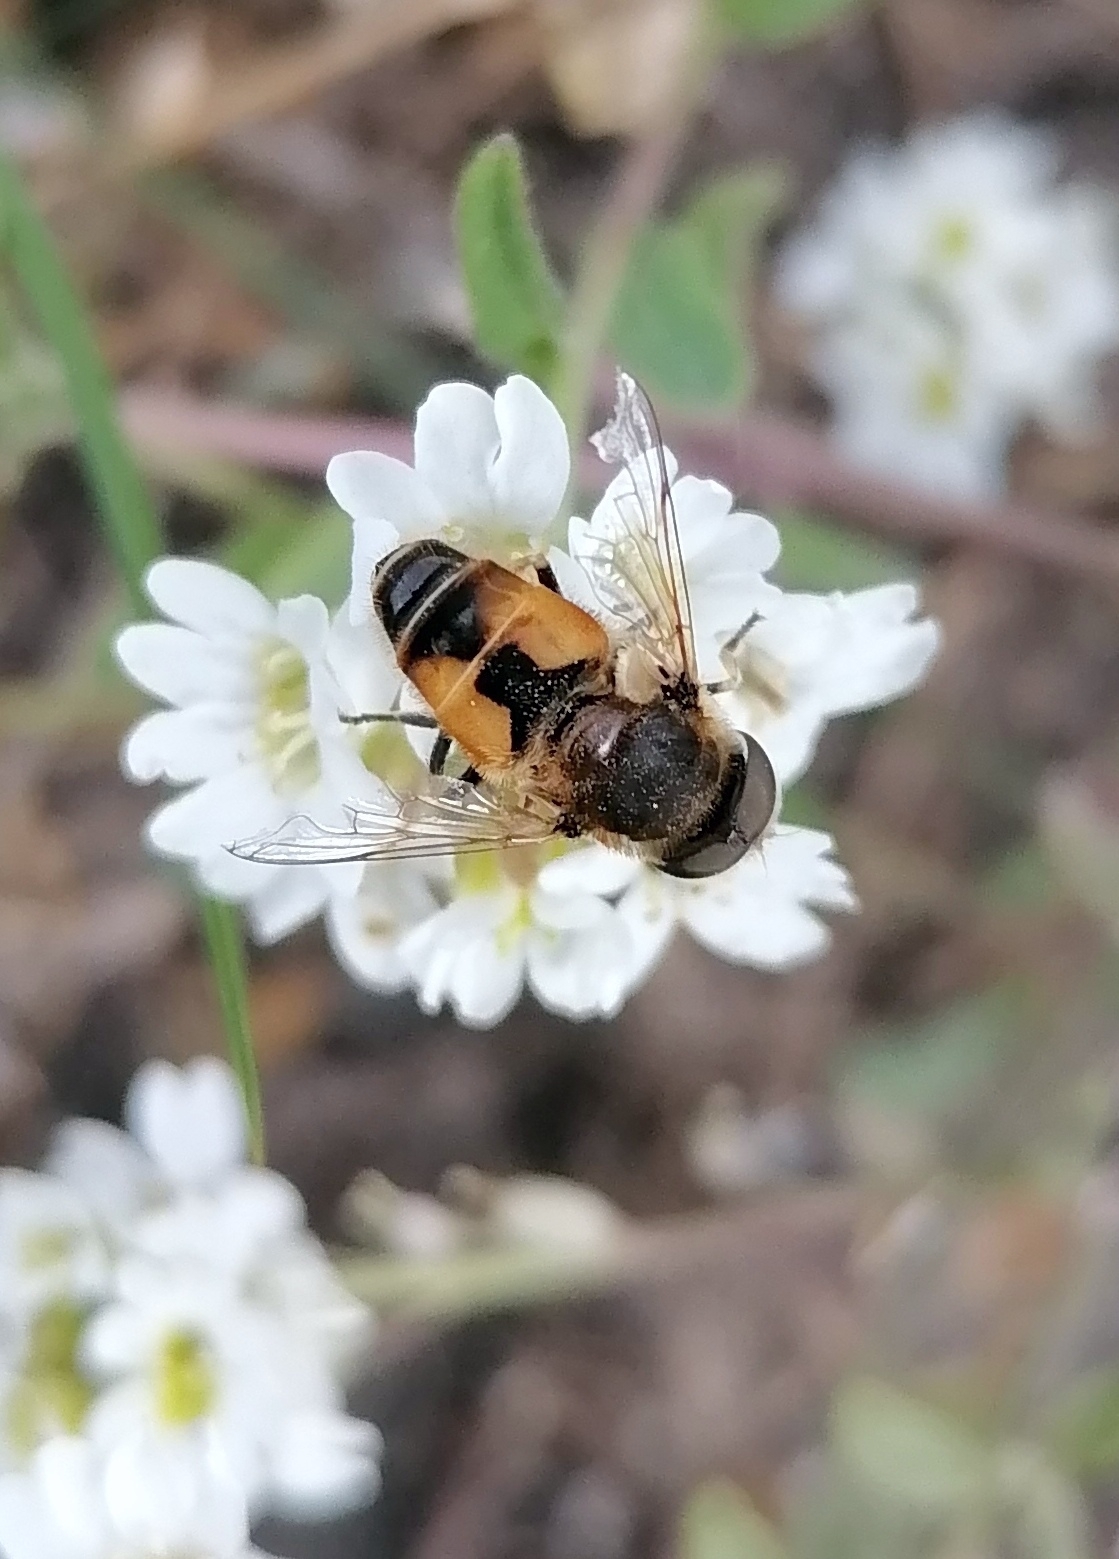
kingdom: Animalia
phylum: Arthropoda
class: Insecta
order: Diptera
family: Syrphidae
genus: Eristalis
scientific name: Eristalis arbustorum
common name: Hover fly
